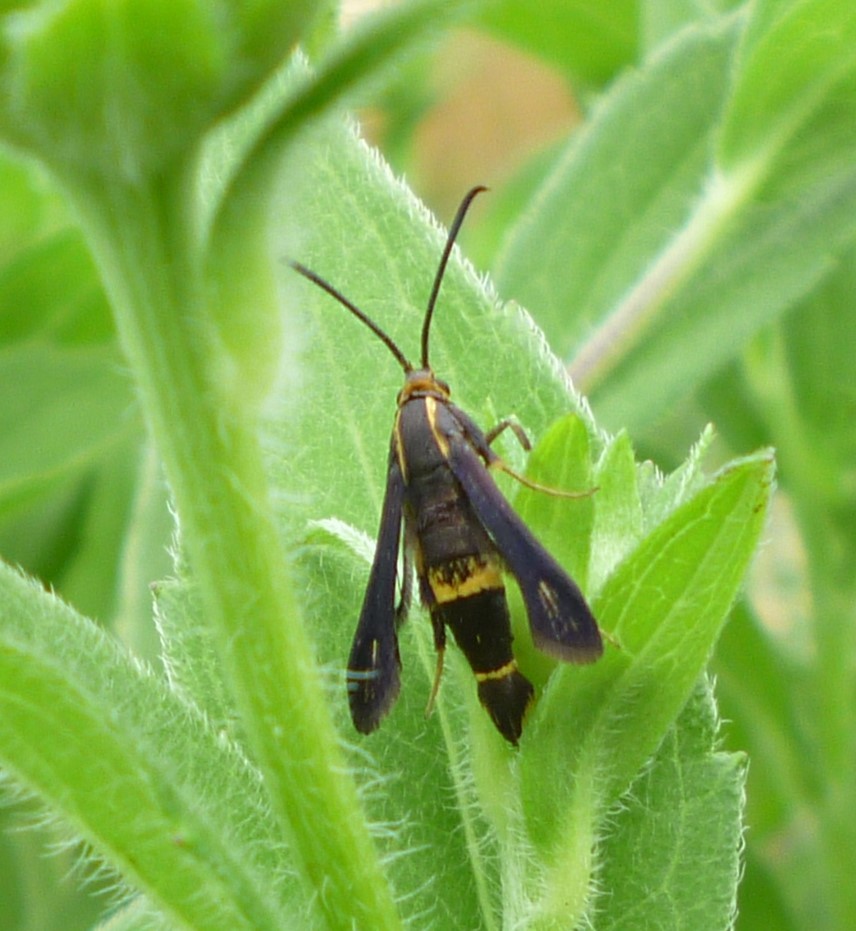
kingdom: Animalia
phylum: Arthropoda
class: Insecta
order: Lepidoptera
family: Sesiidae
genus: Carmenta
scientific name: Carmenta pyralidiformis
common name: Boneset borer moth
